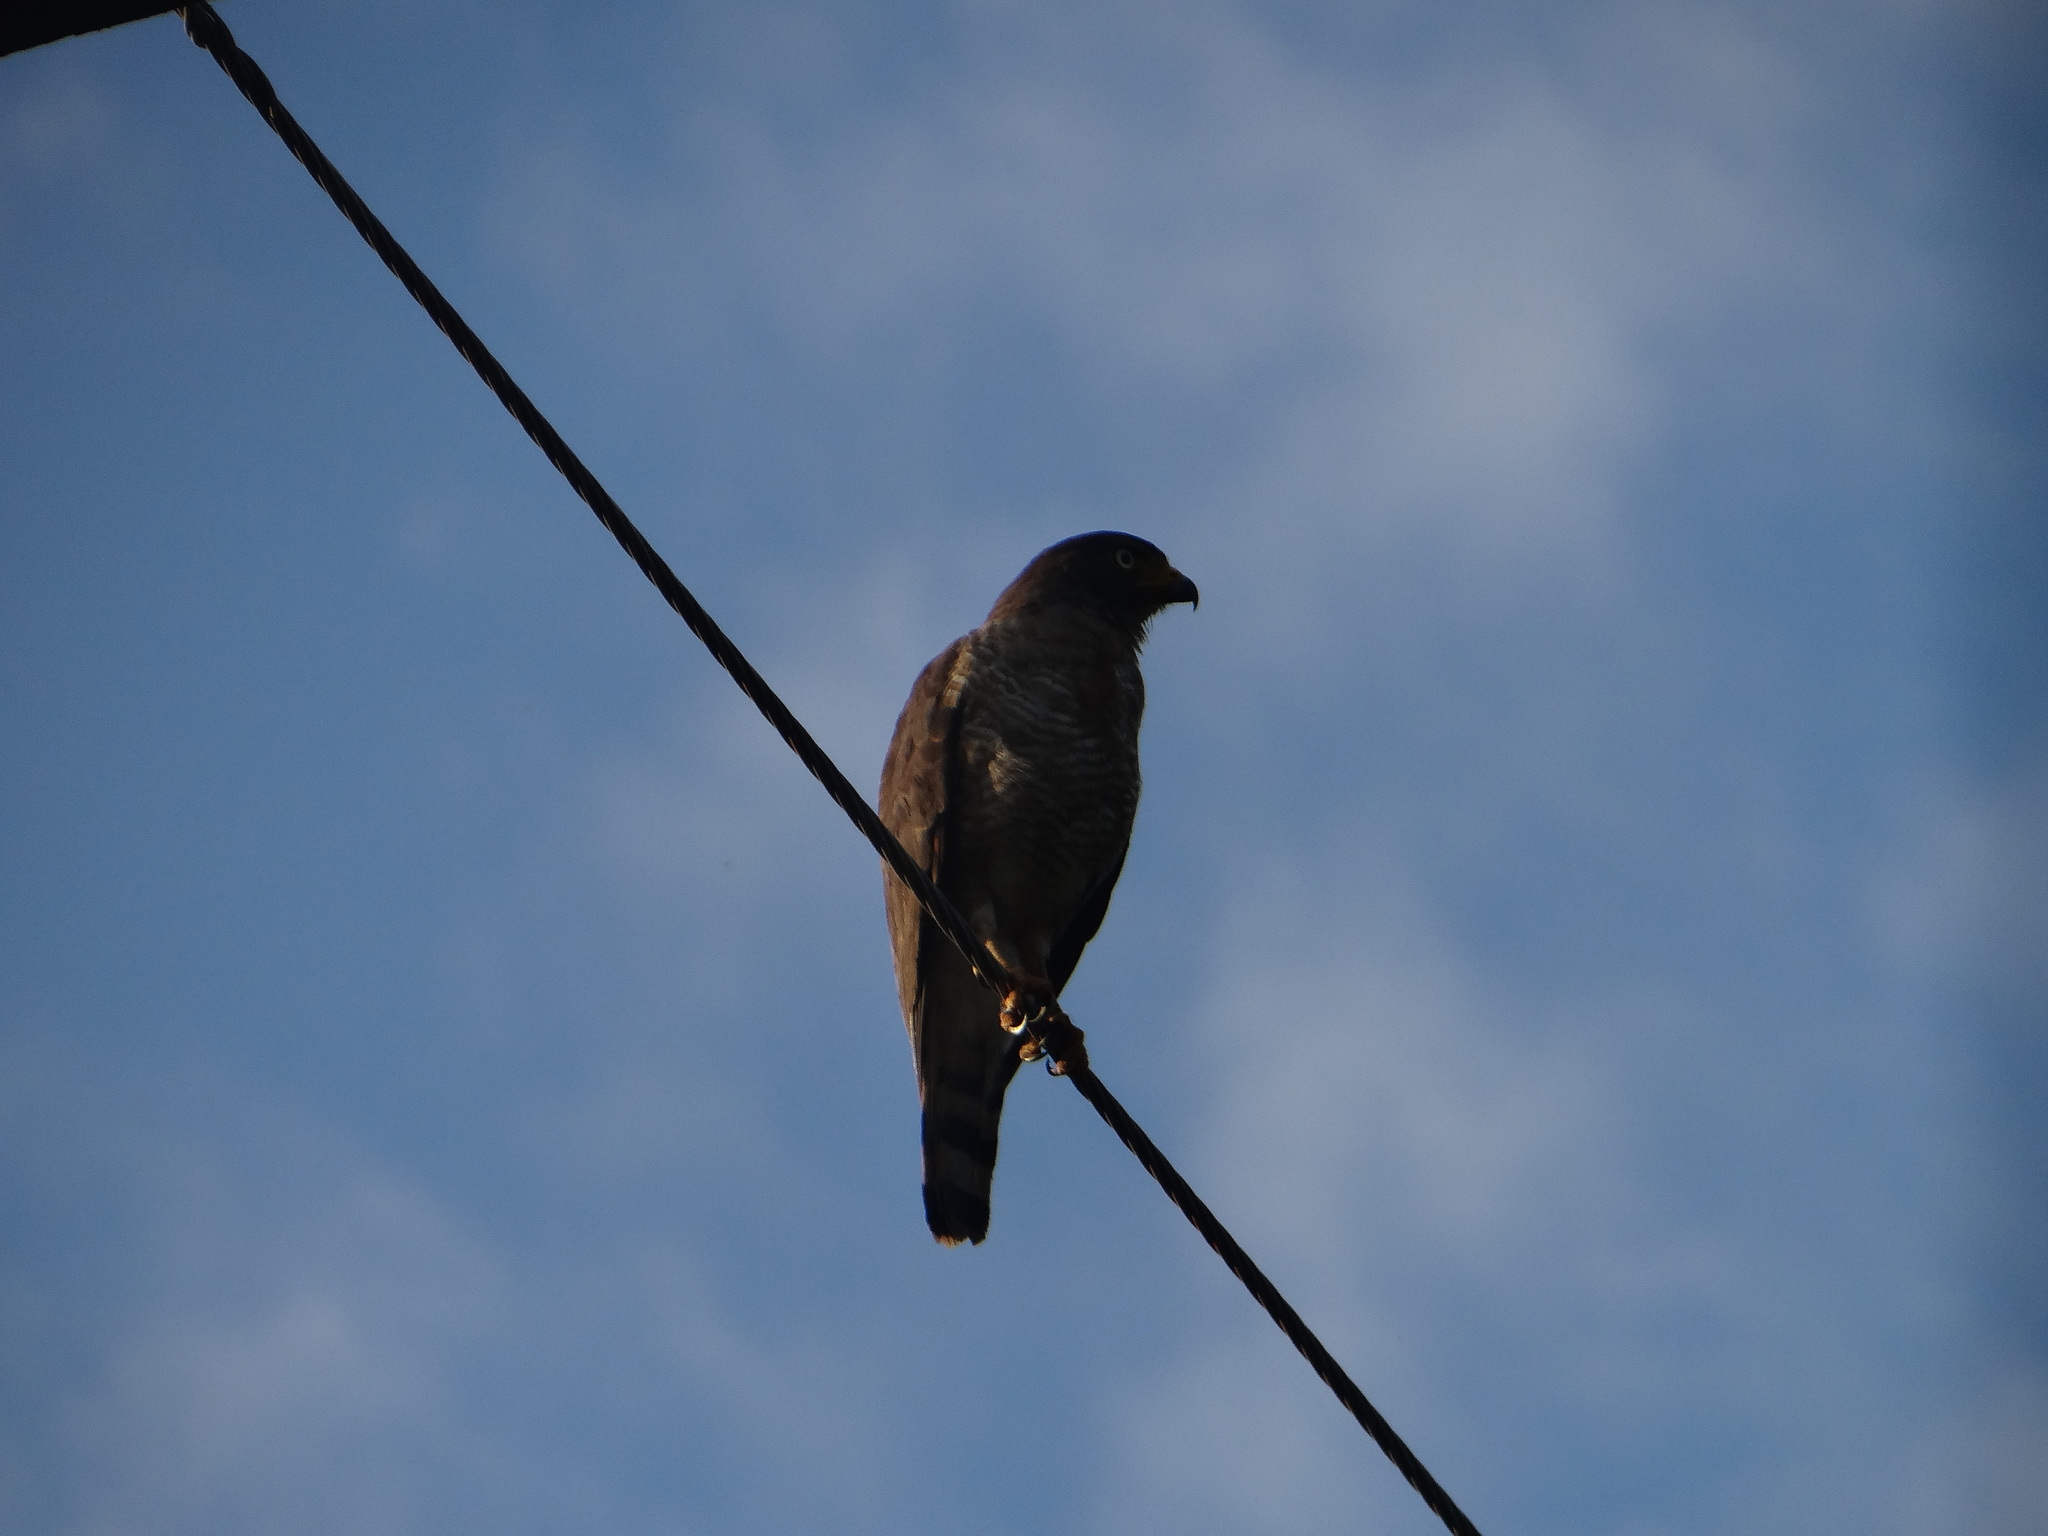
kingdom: Animalia
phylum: Chordata
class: Aves
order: Accipitriformes
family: Accipitridae
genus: Rupornis
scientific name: Rupornis magnirostris
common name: Roadside hawk
